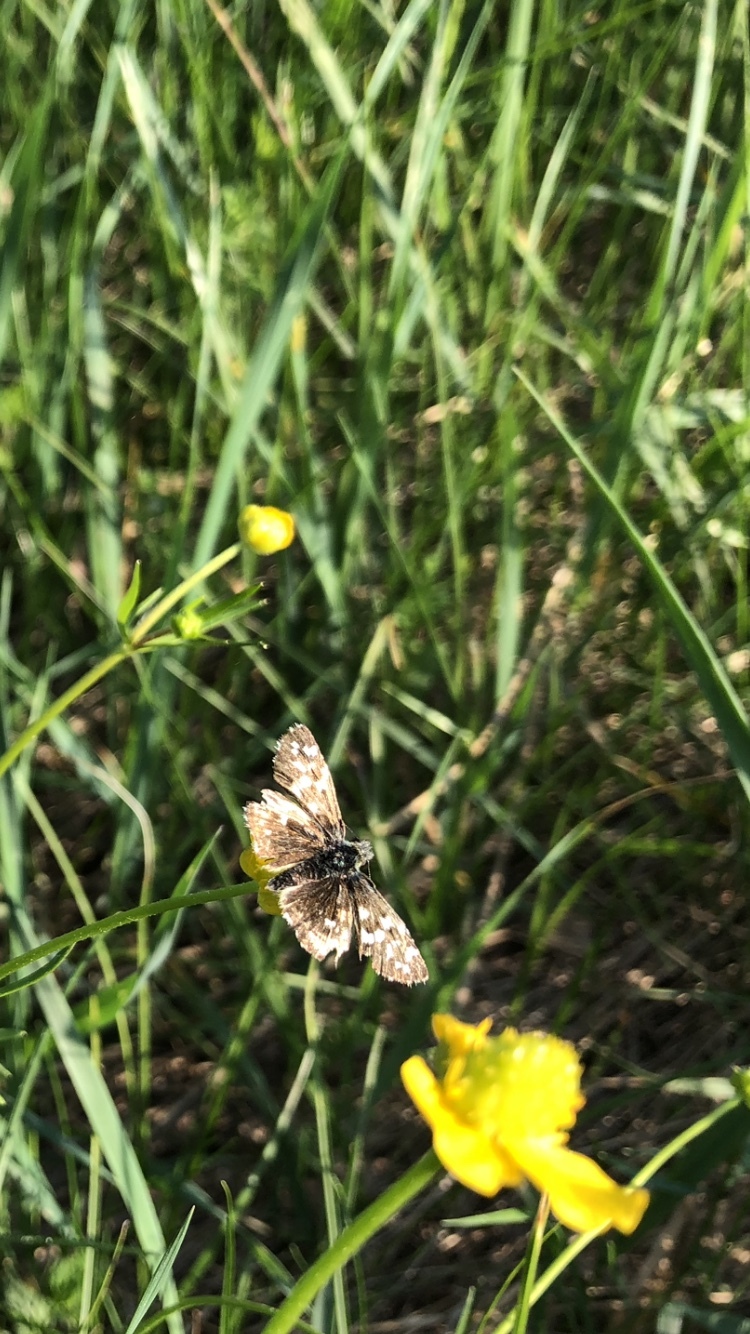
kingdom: Animalia
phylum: Arthropoda
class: Insecta
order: Lepidoptera
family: Hesperiidae
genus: Pyrgus
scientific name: Pyrgus malvae
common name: Grizzled skipper
